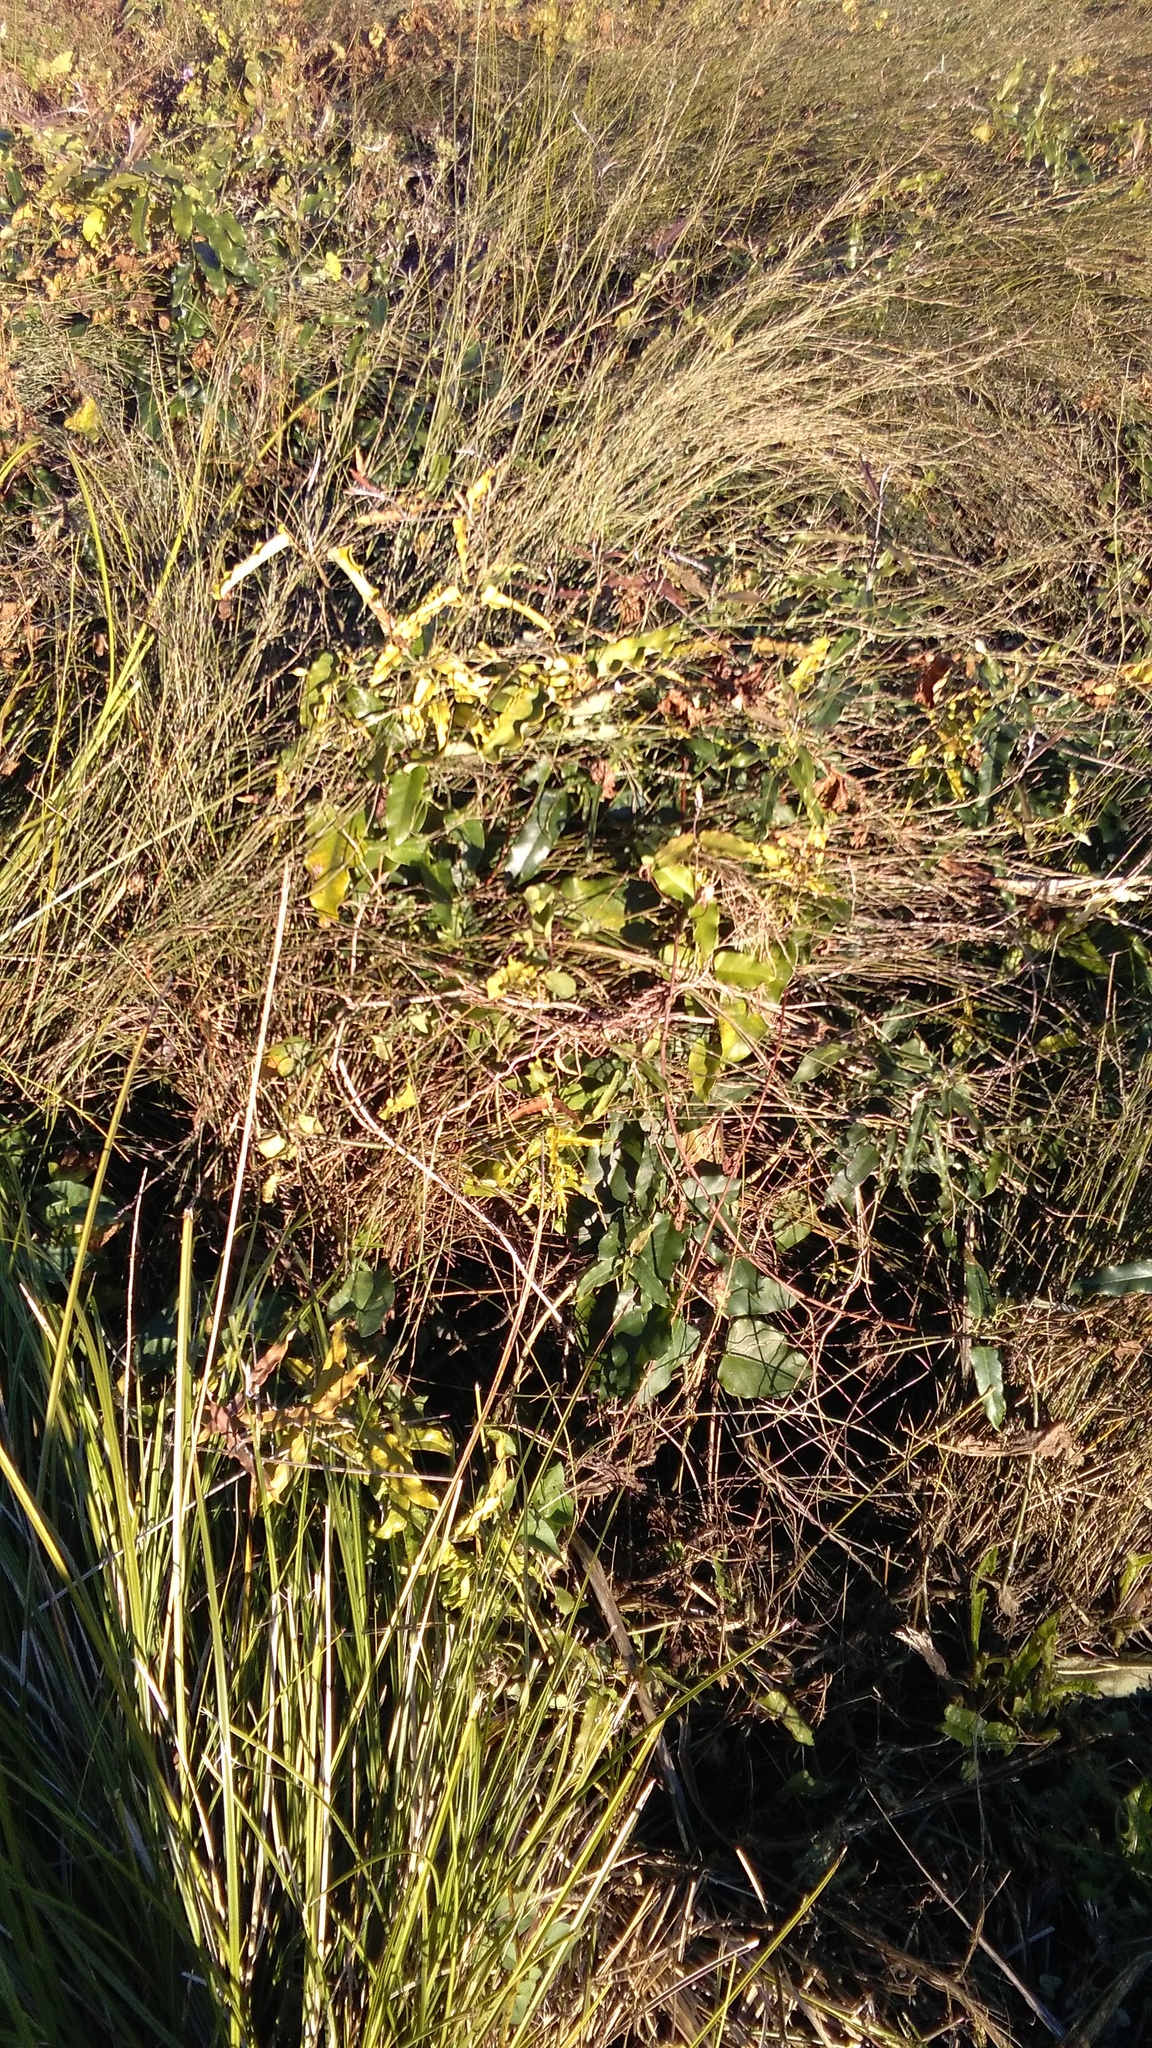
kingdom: Plantae
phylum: Tracheophyta
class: Magnoliopsida
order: Gentianales
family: Apocynaceae
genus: Araujia
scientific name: Araujia sericifera
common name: White bladderflower
